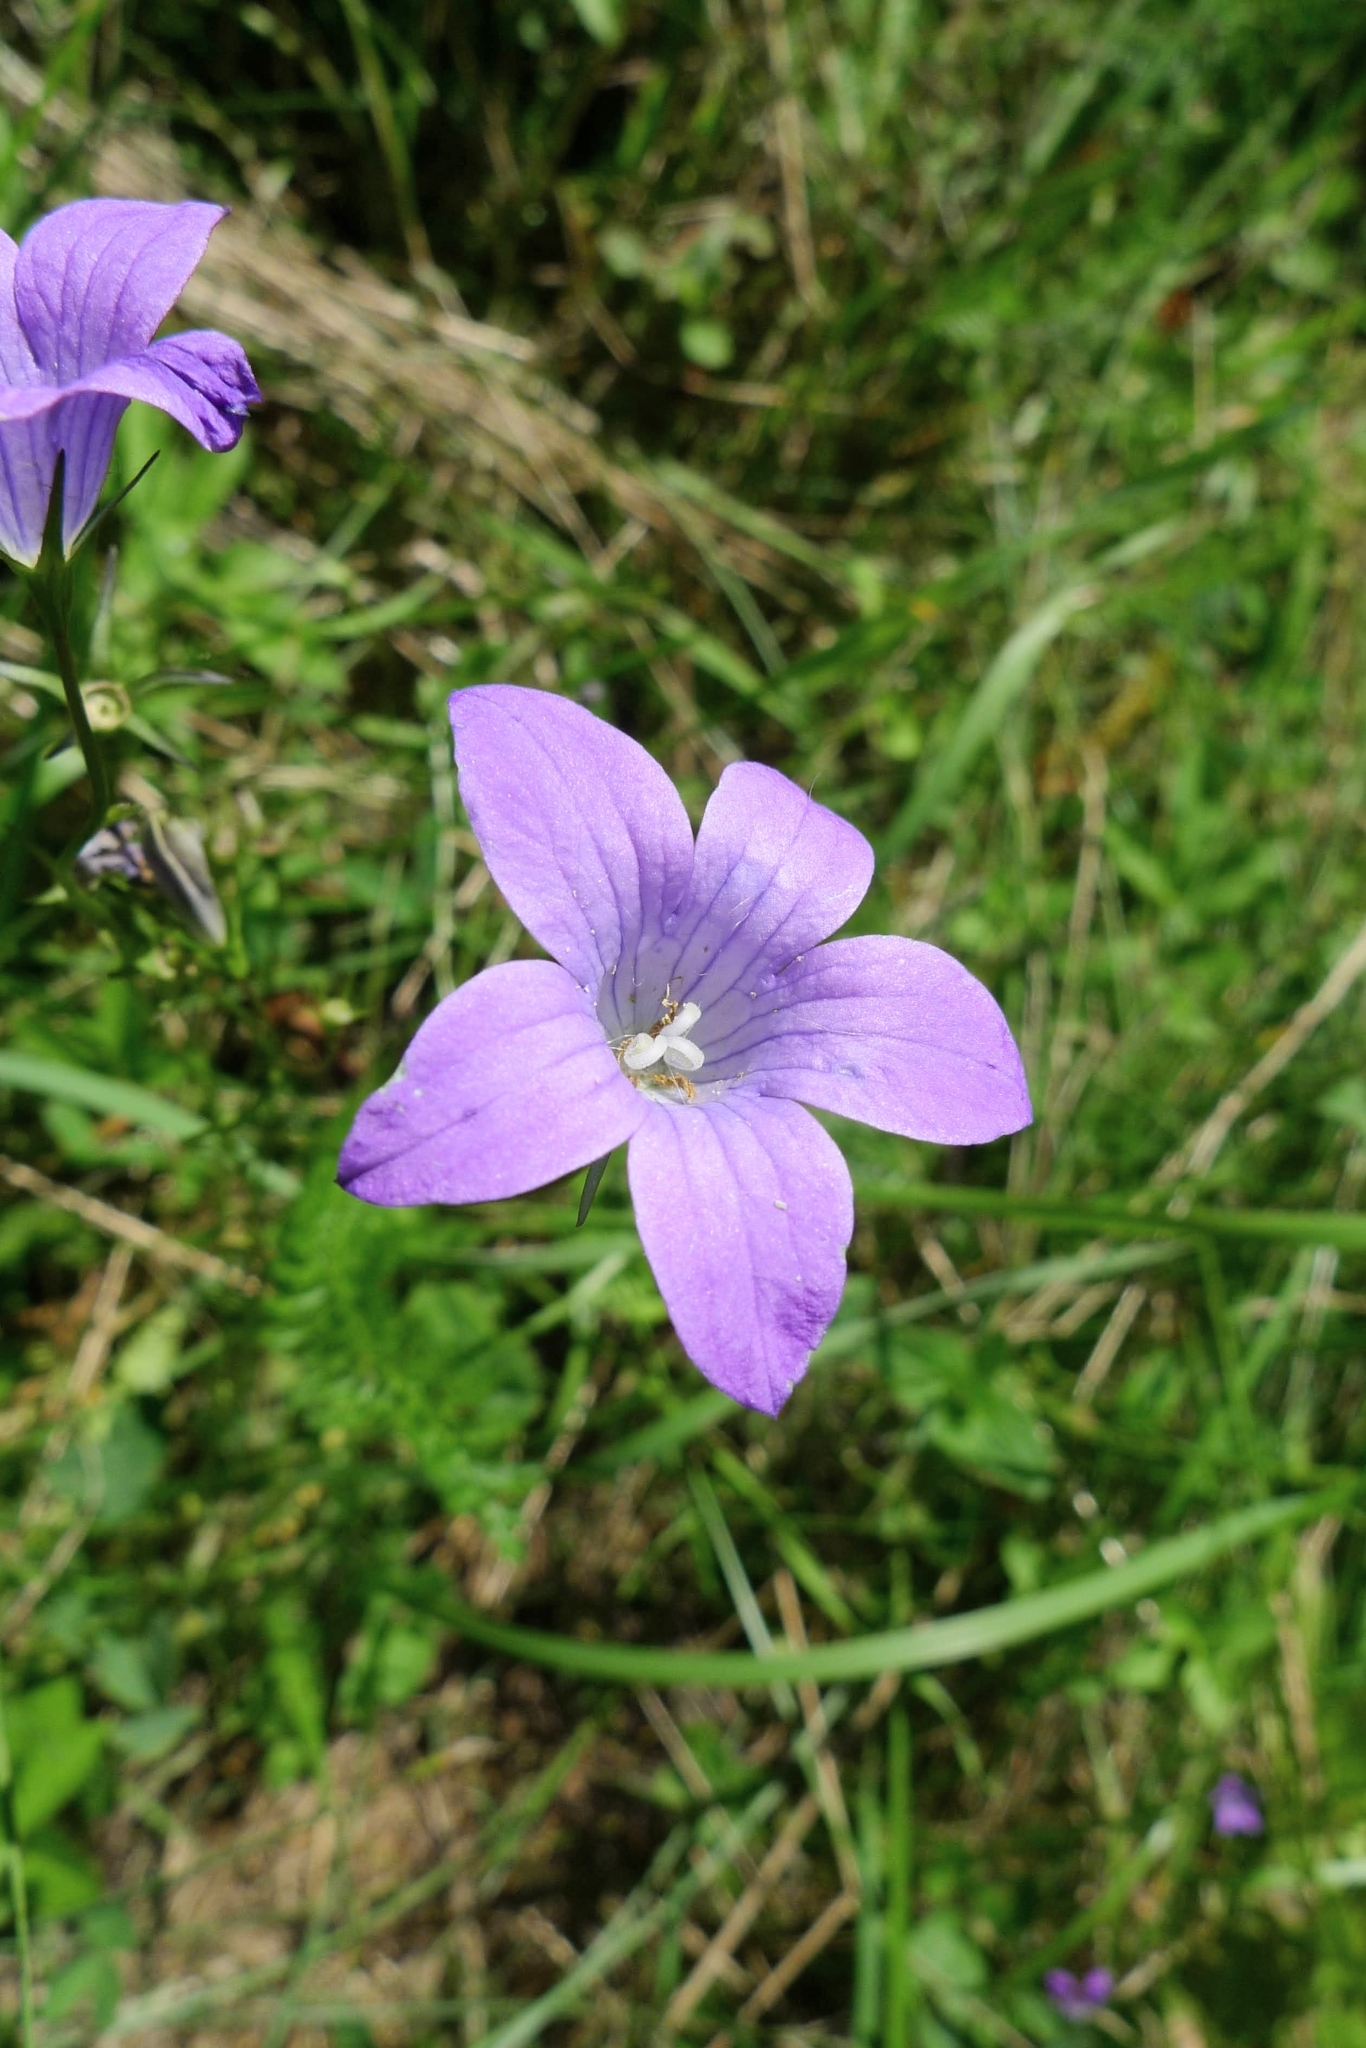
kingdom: Plantae
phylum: Tracheophyta
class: Magnoliopsida
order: Asterales
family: Campanulaceae
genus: Campanula
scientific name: Campanula patula
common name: Spreading bellflower
